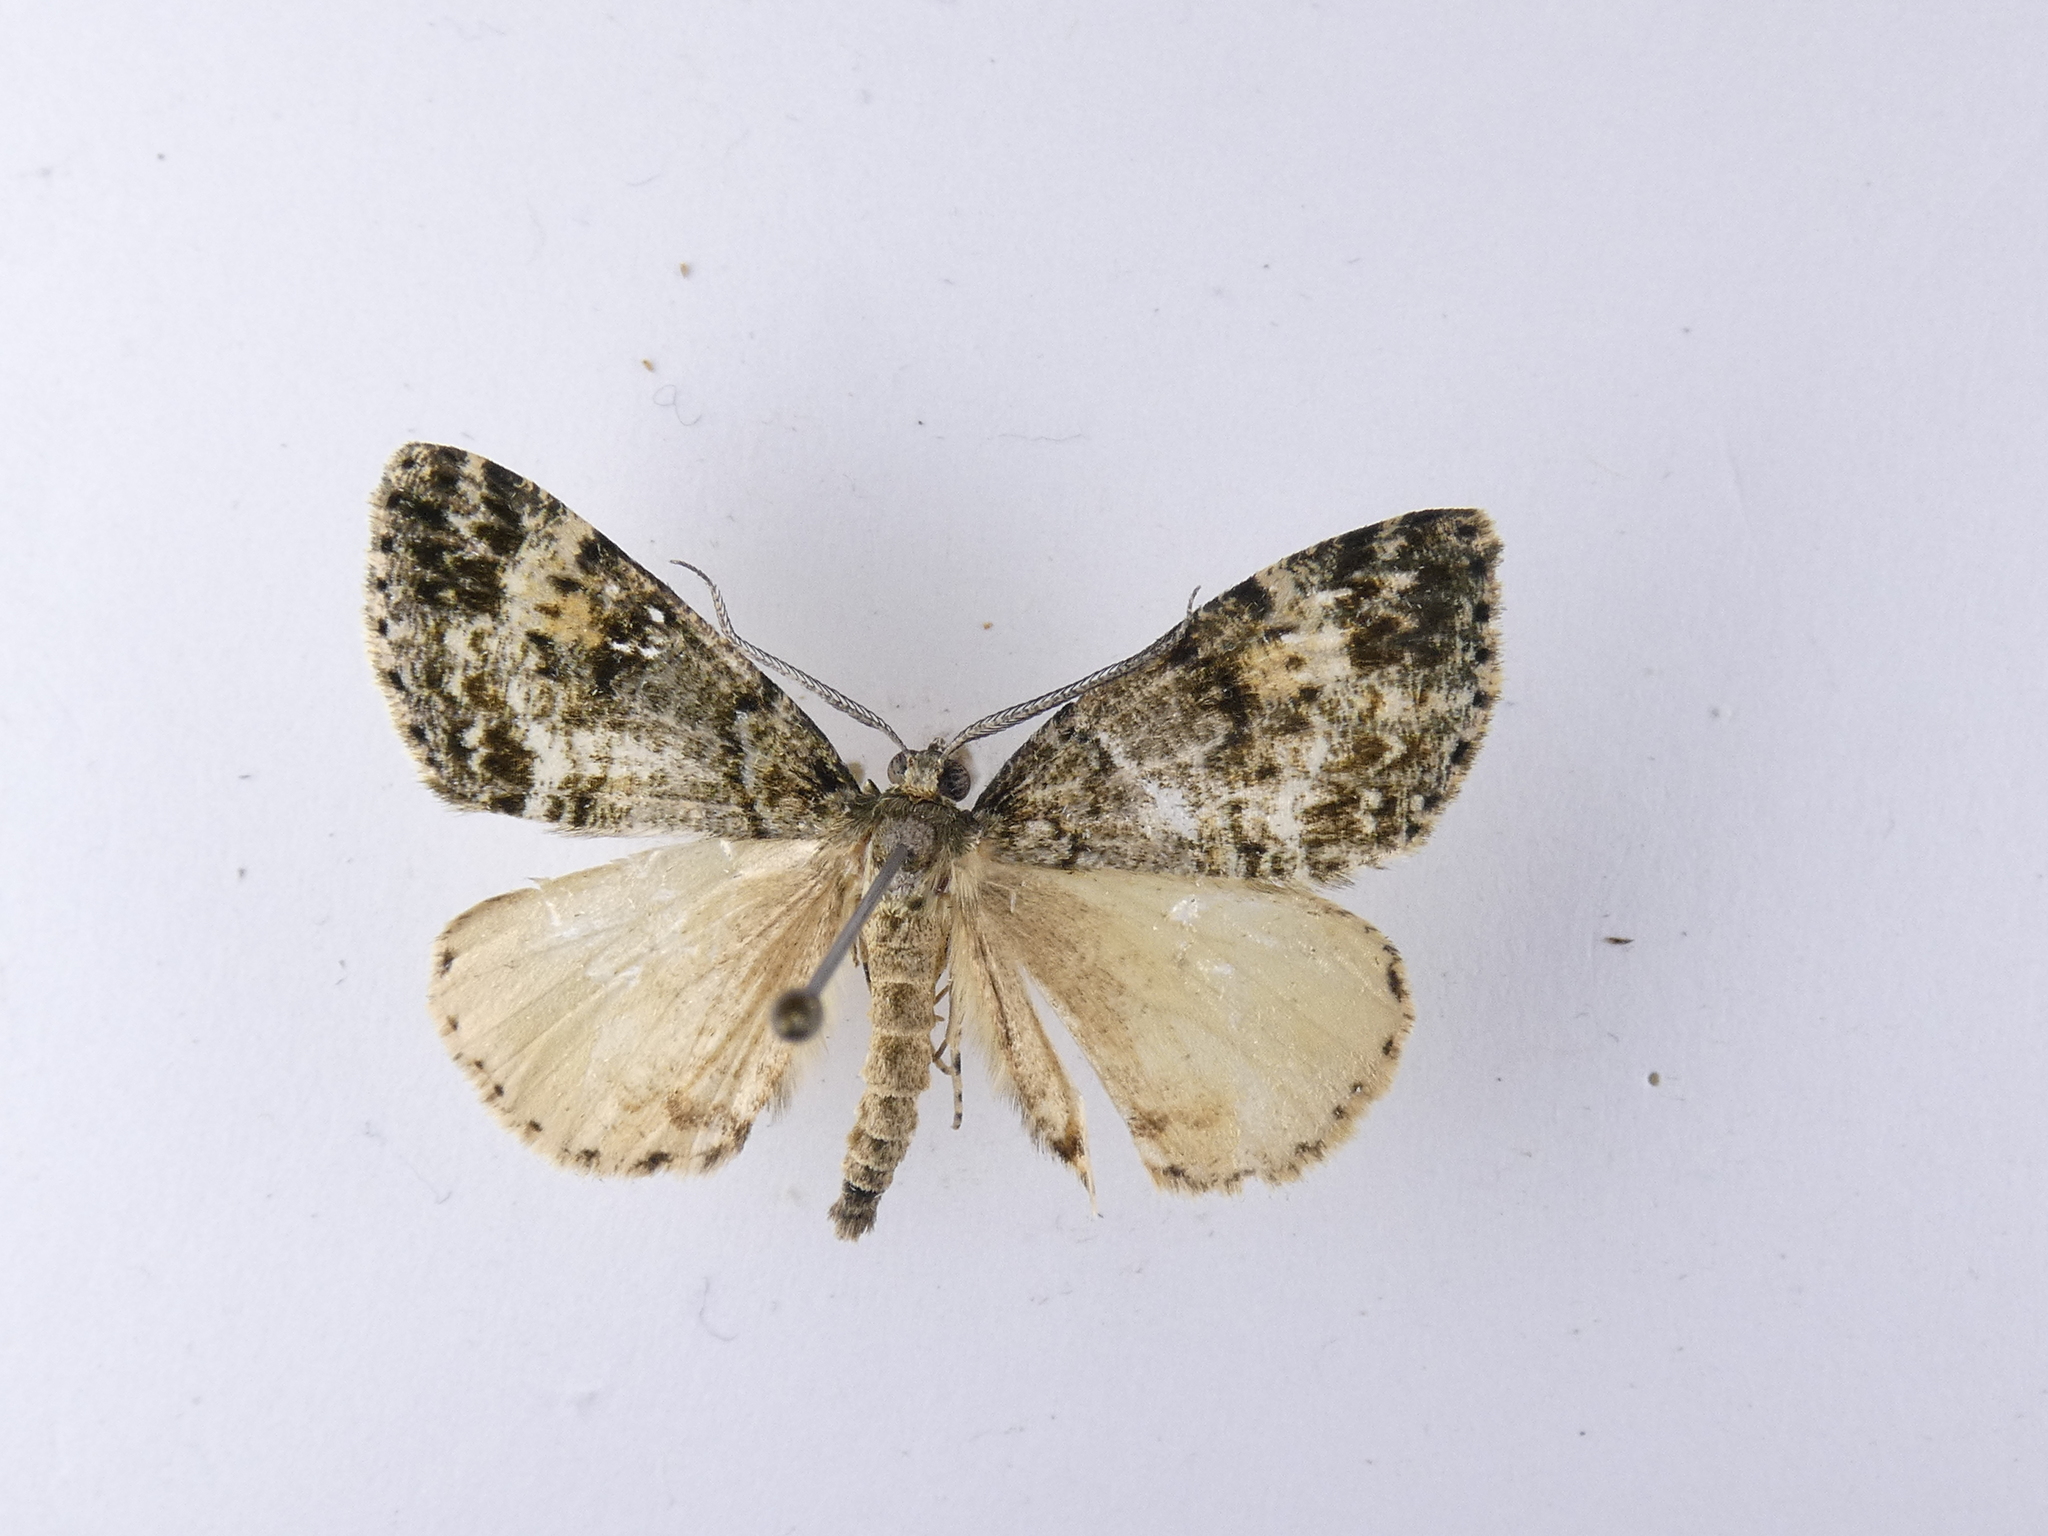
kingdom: Animalia
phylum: Arthropoda
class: Insecta
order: Lepidoptera
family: Geometridae
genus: Pseudocoremia
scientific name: Pseudocoremia indistincta
